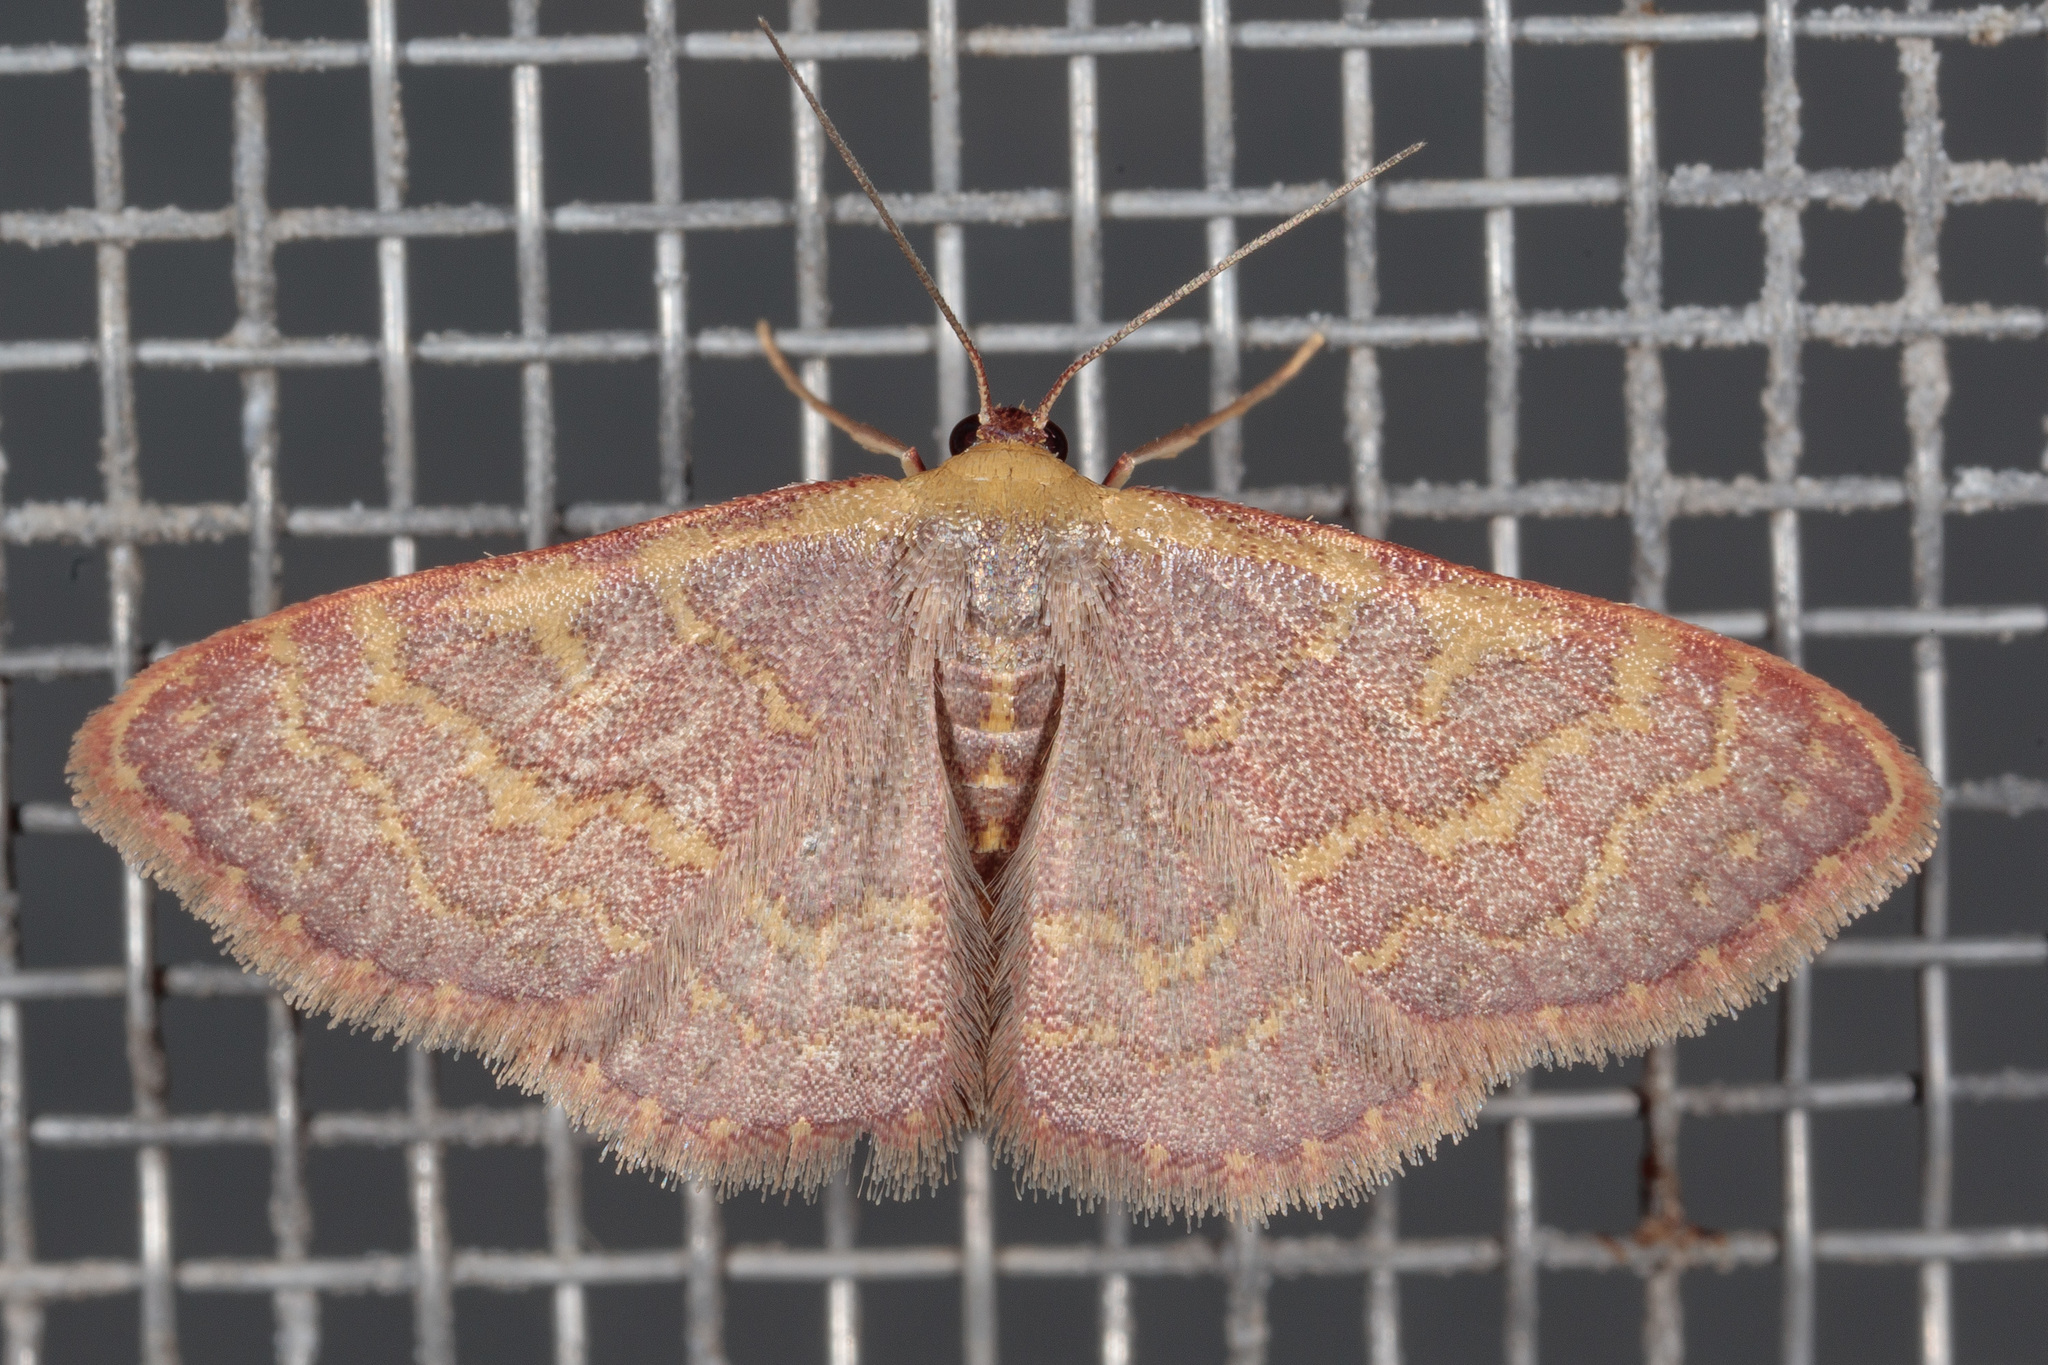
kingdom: Animalia
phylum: Arthropoda
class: Insecta
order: Lepidoptera
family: Geometridae
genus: Leptostales
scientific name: Leptostales pannaria
